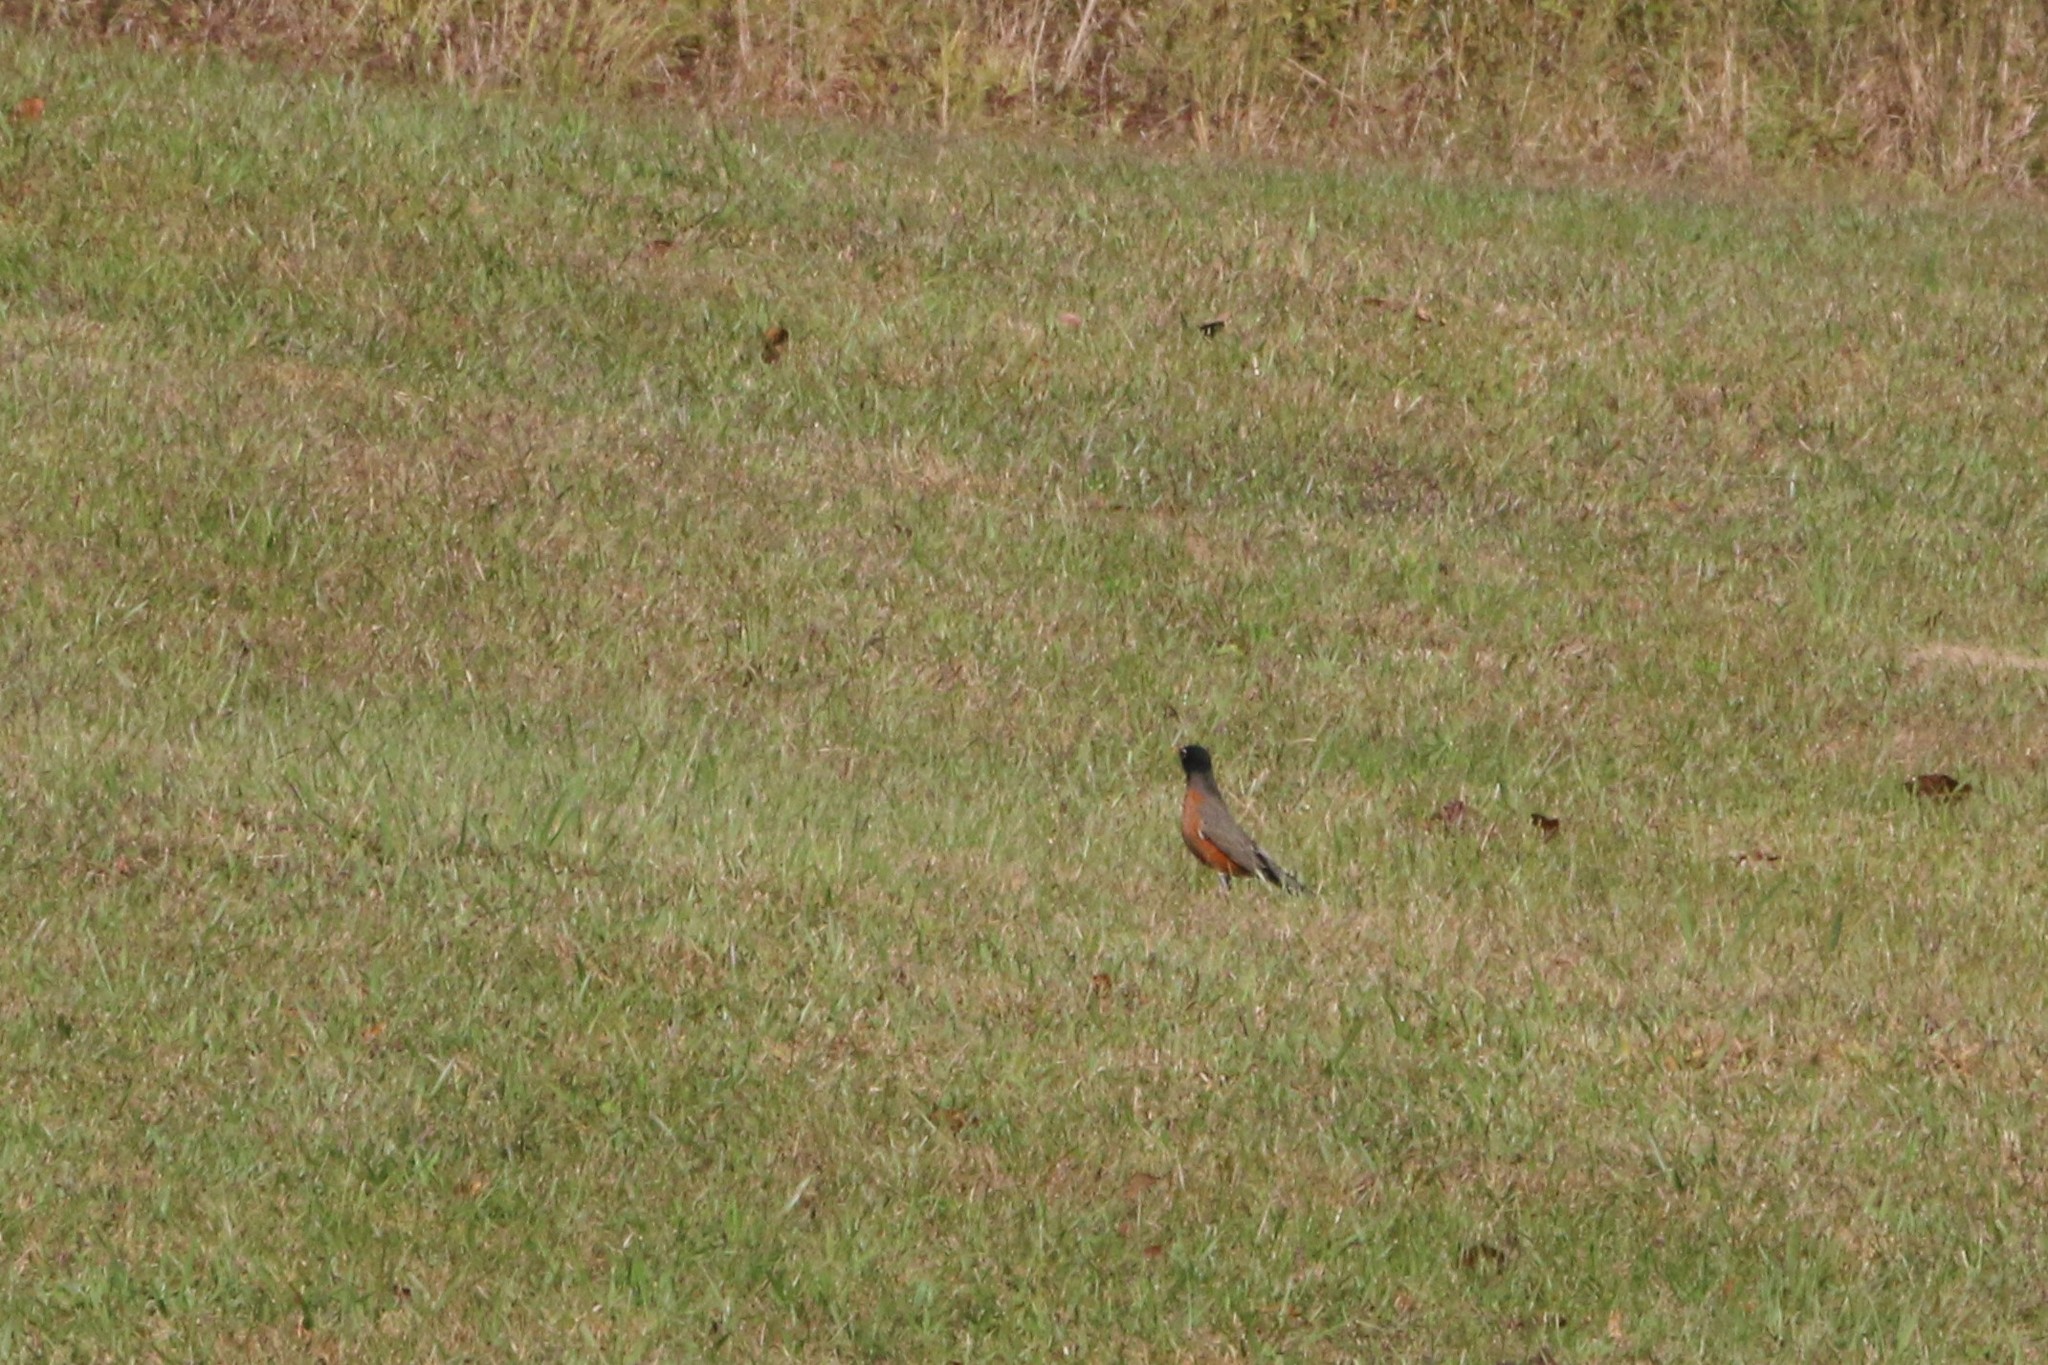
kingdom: Animalia
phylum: Chordata
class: Aves
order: Passeriformes
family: Turdidae
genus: Turdus
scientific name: Turdus migratorius
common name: American robin
